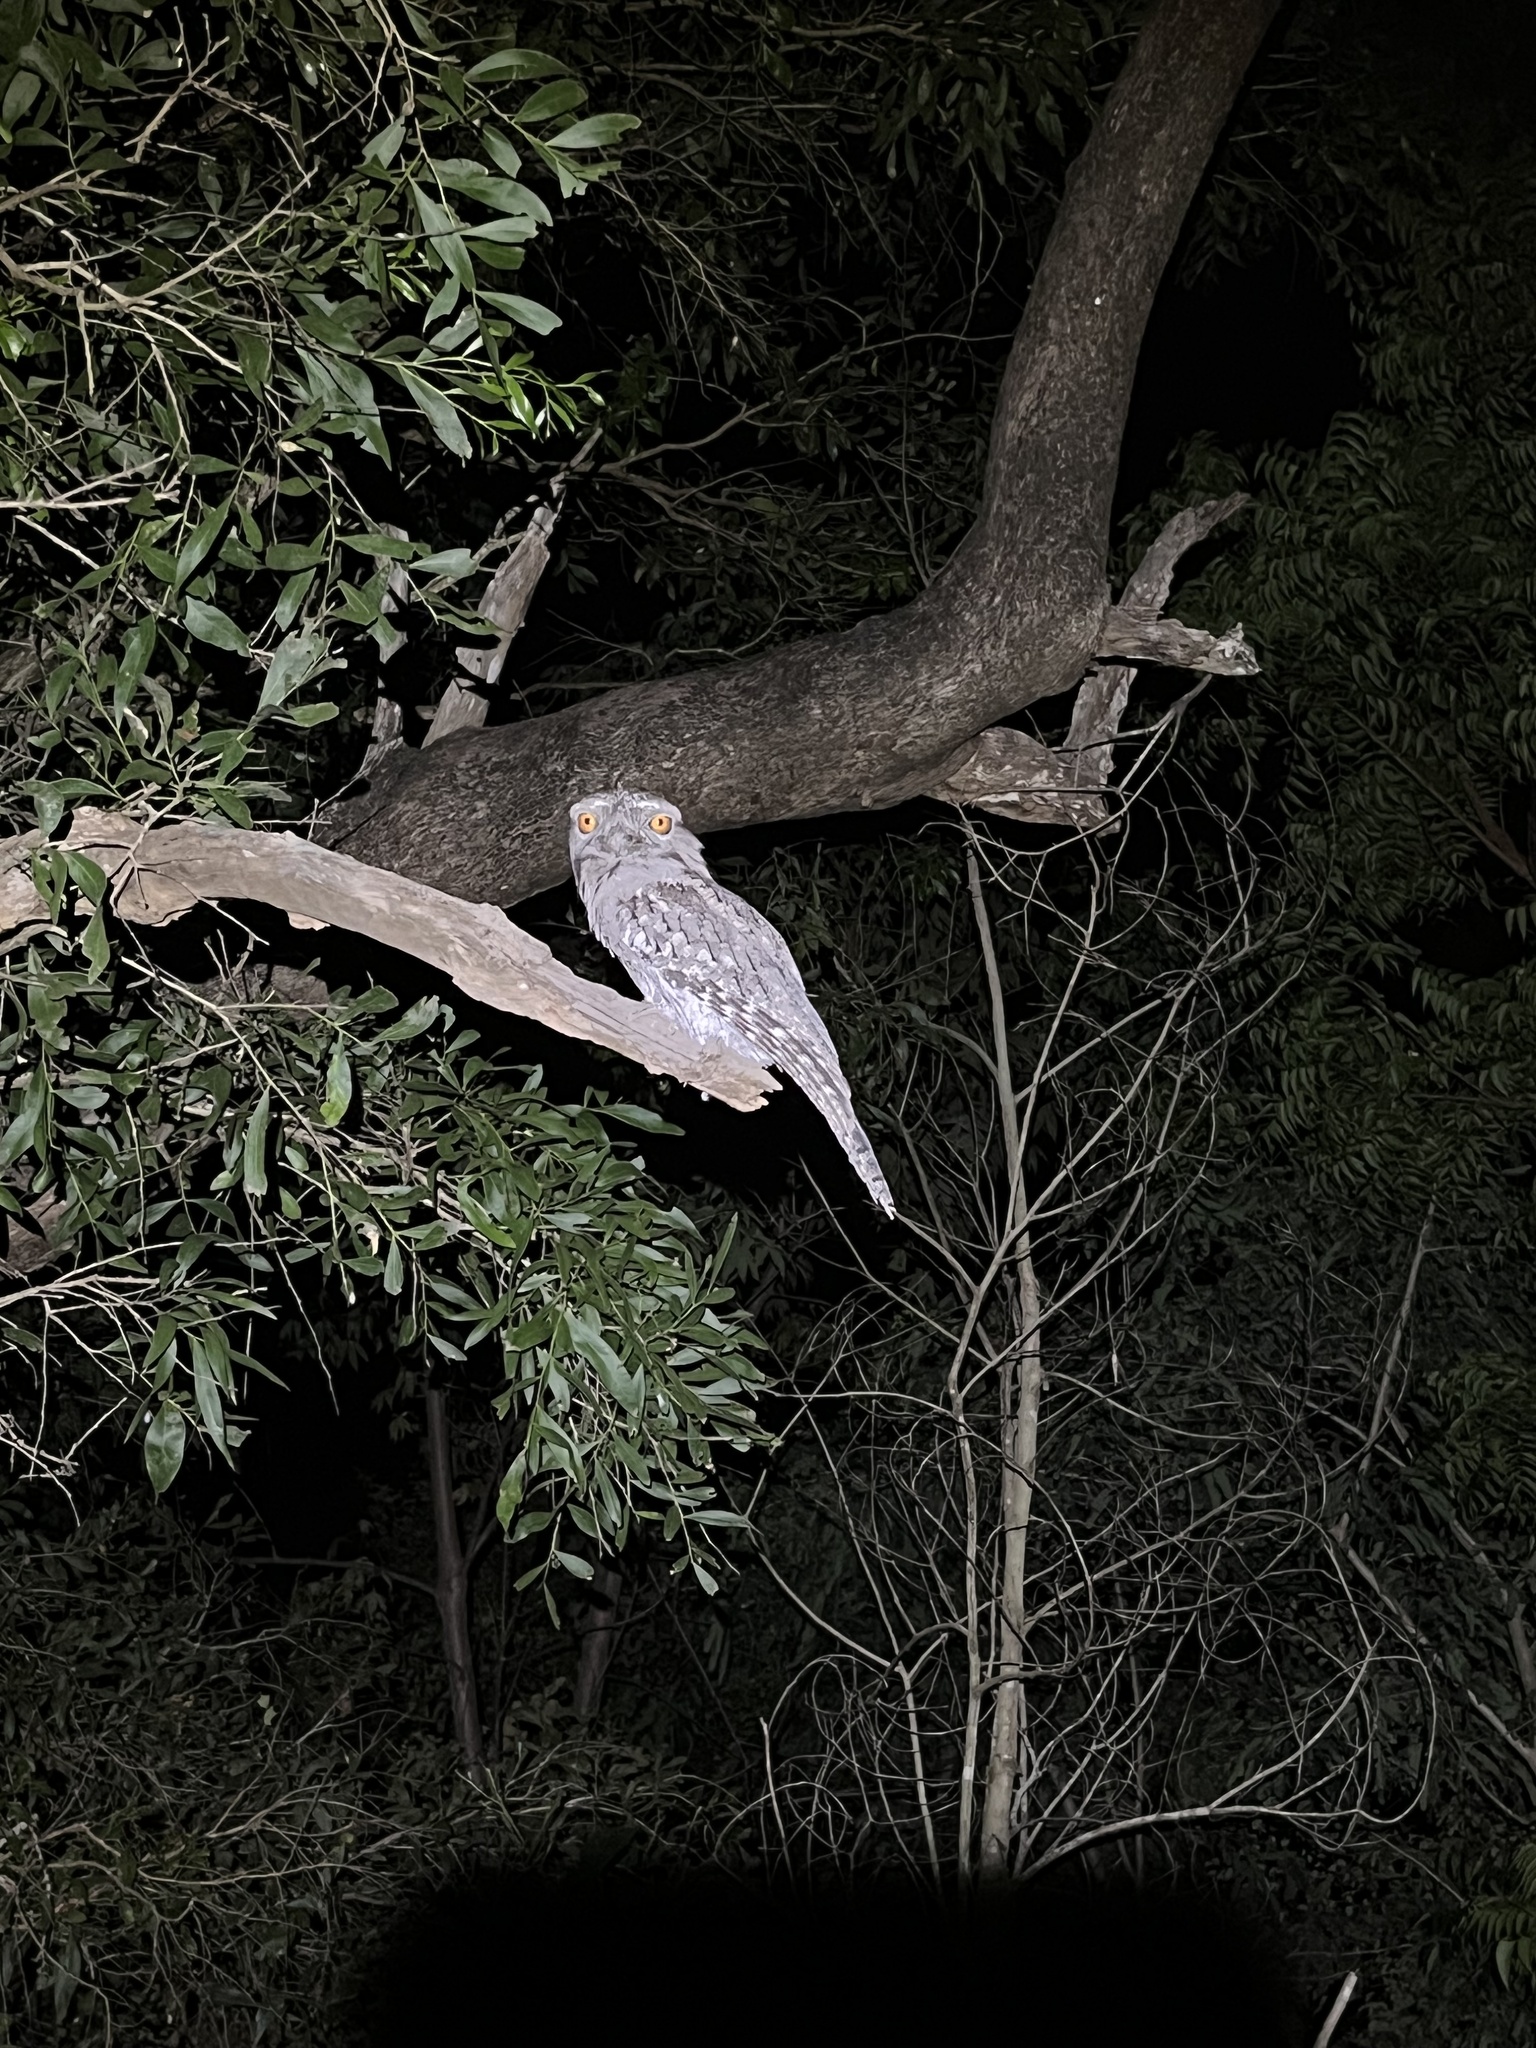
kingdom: Animalia
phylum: Chordata
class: Aves
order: Caprimulgiformes
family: Podargidae
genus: Podargus
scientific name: Podargus strigoides
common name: Tawny frogmouth
